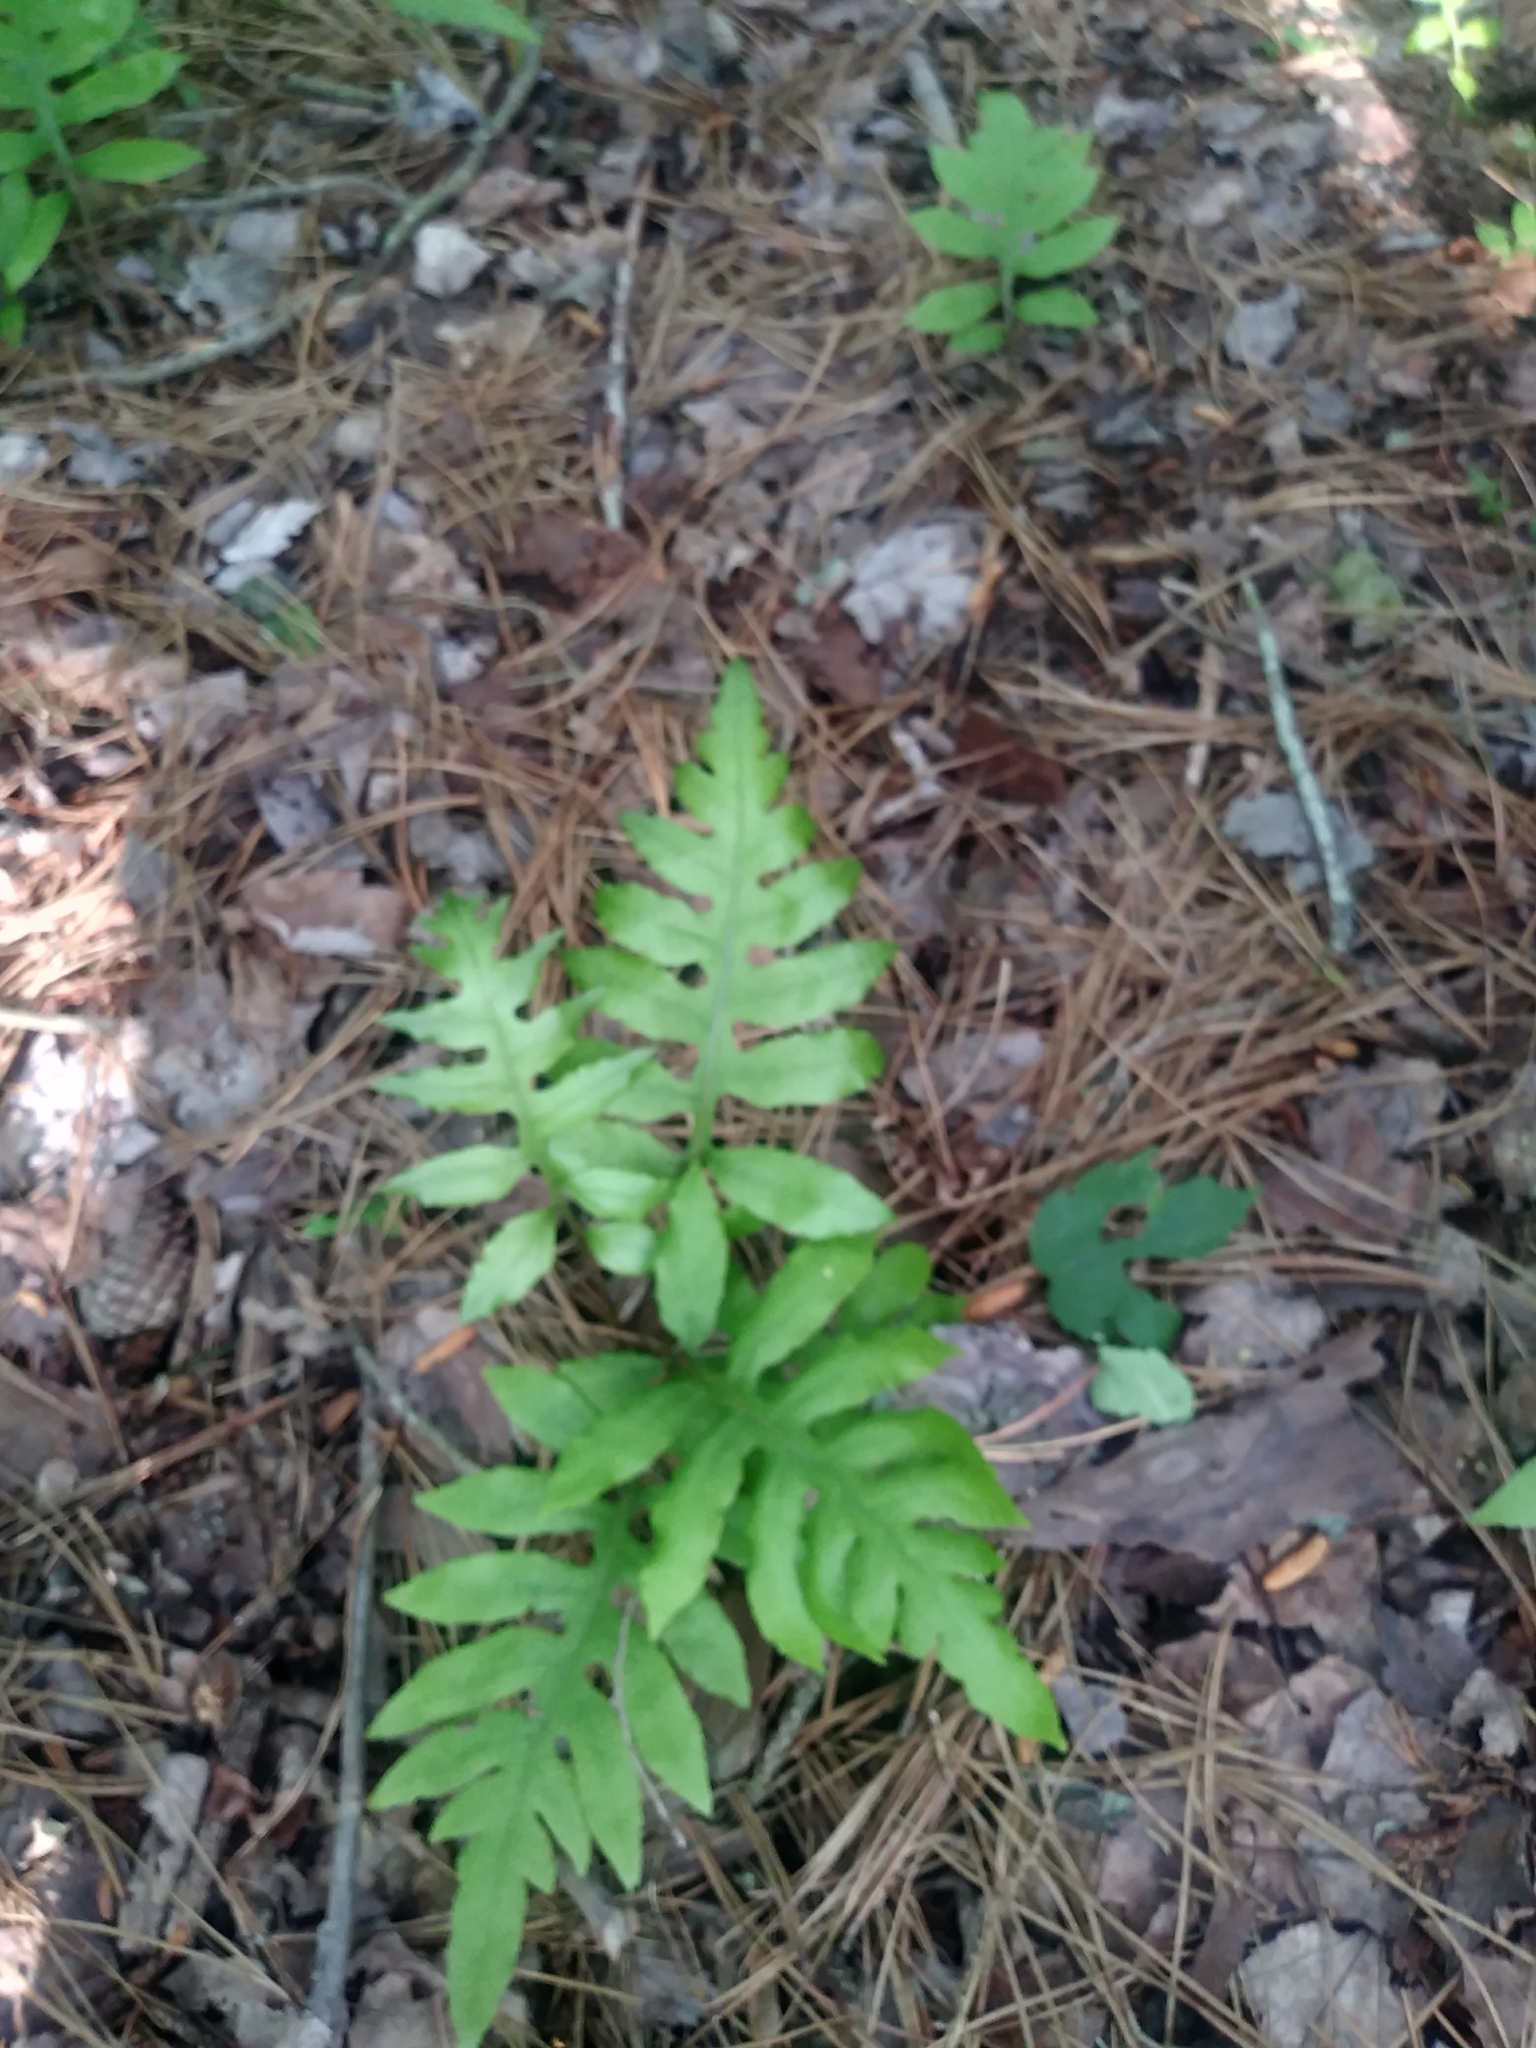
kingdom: Plantae
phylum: Tracheophyta
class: Polypodiopsida
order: Polypodiales
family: Blechnaceae
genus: Lorinseria
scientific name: Lorinseria areolata
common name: Dwarf chain fern
